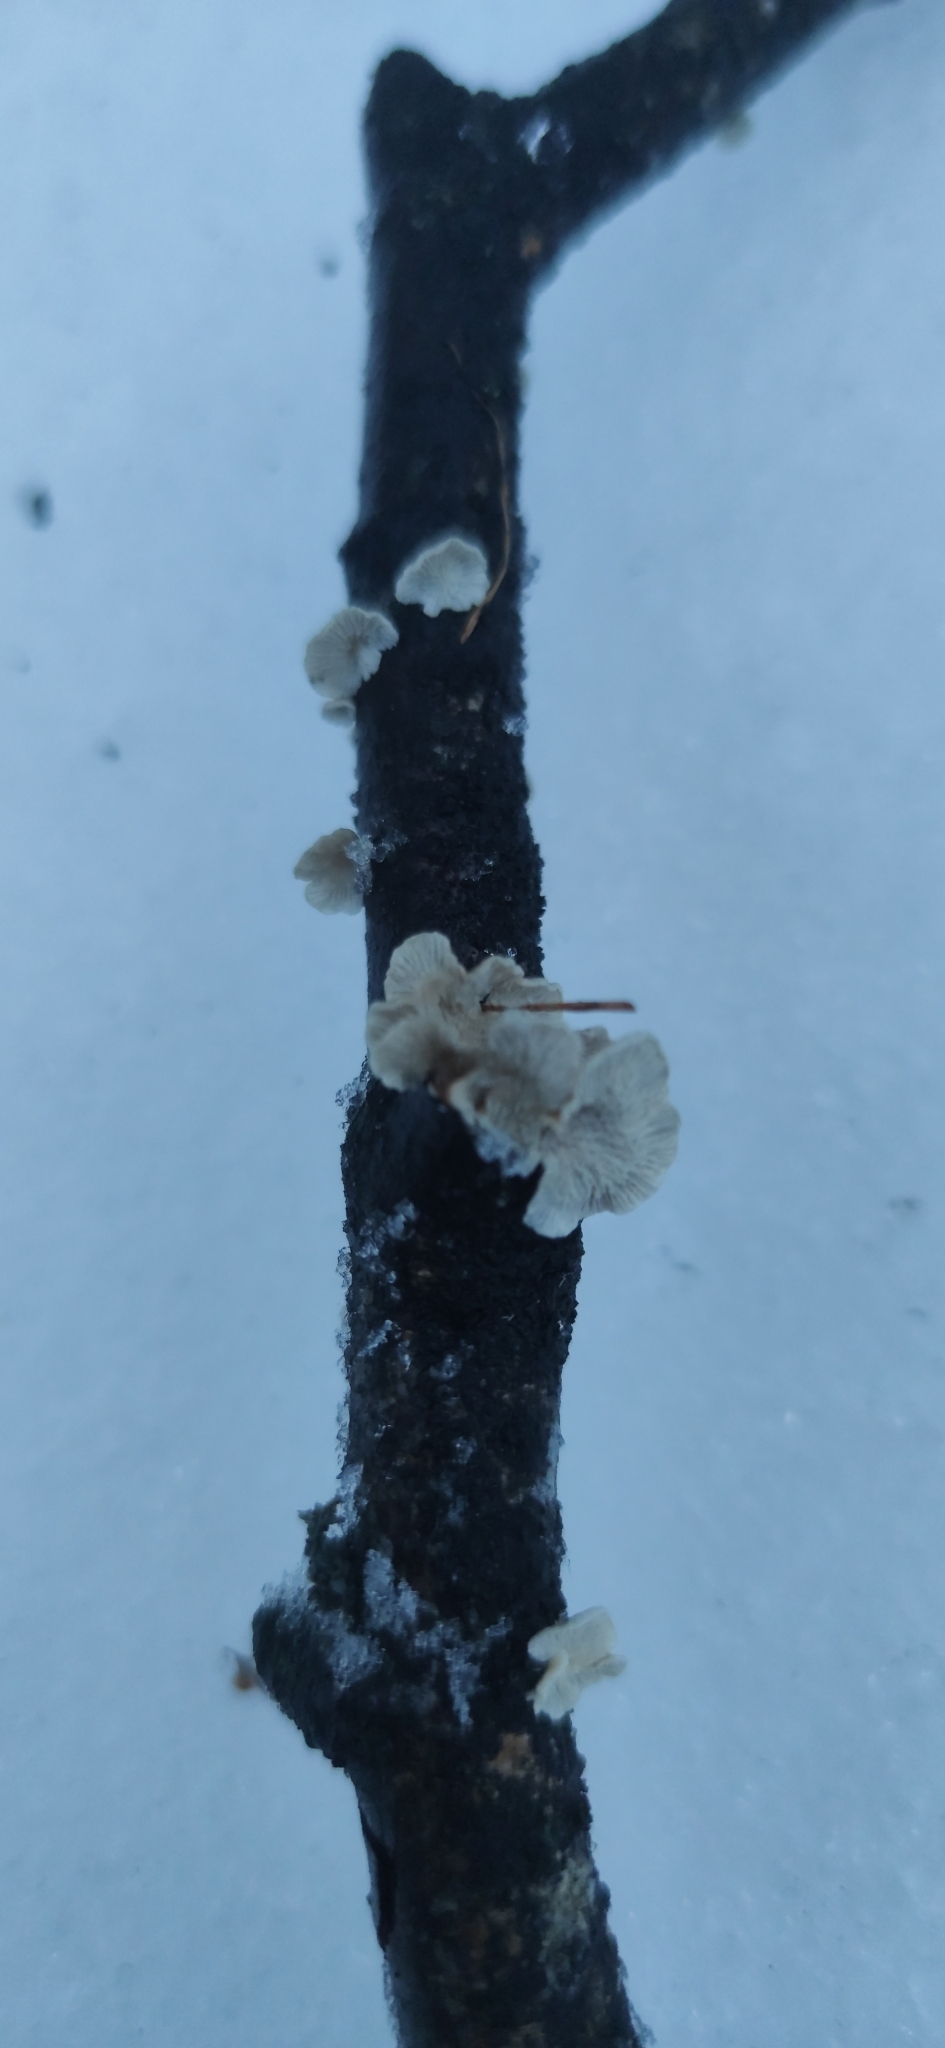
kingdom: Fungi
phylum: Basidiomycota
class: Agaricomycetes
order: Amylocorticiales
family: Amylocorticiaceae
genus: Plicaturopsis
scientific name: Plicaturopsis crispa
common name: Crimped gill
